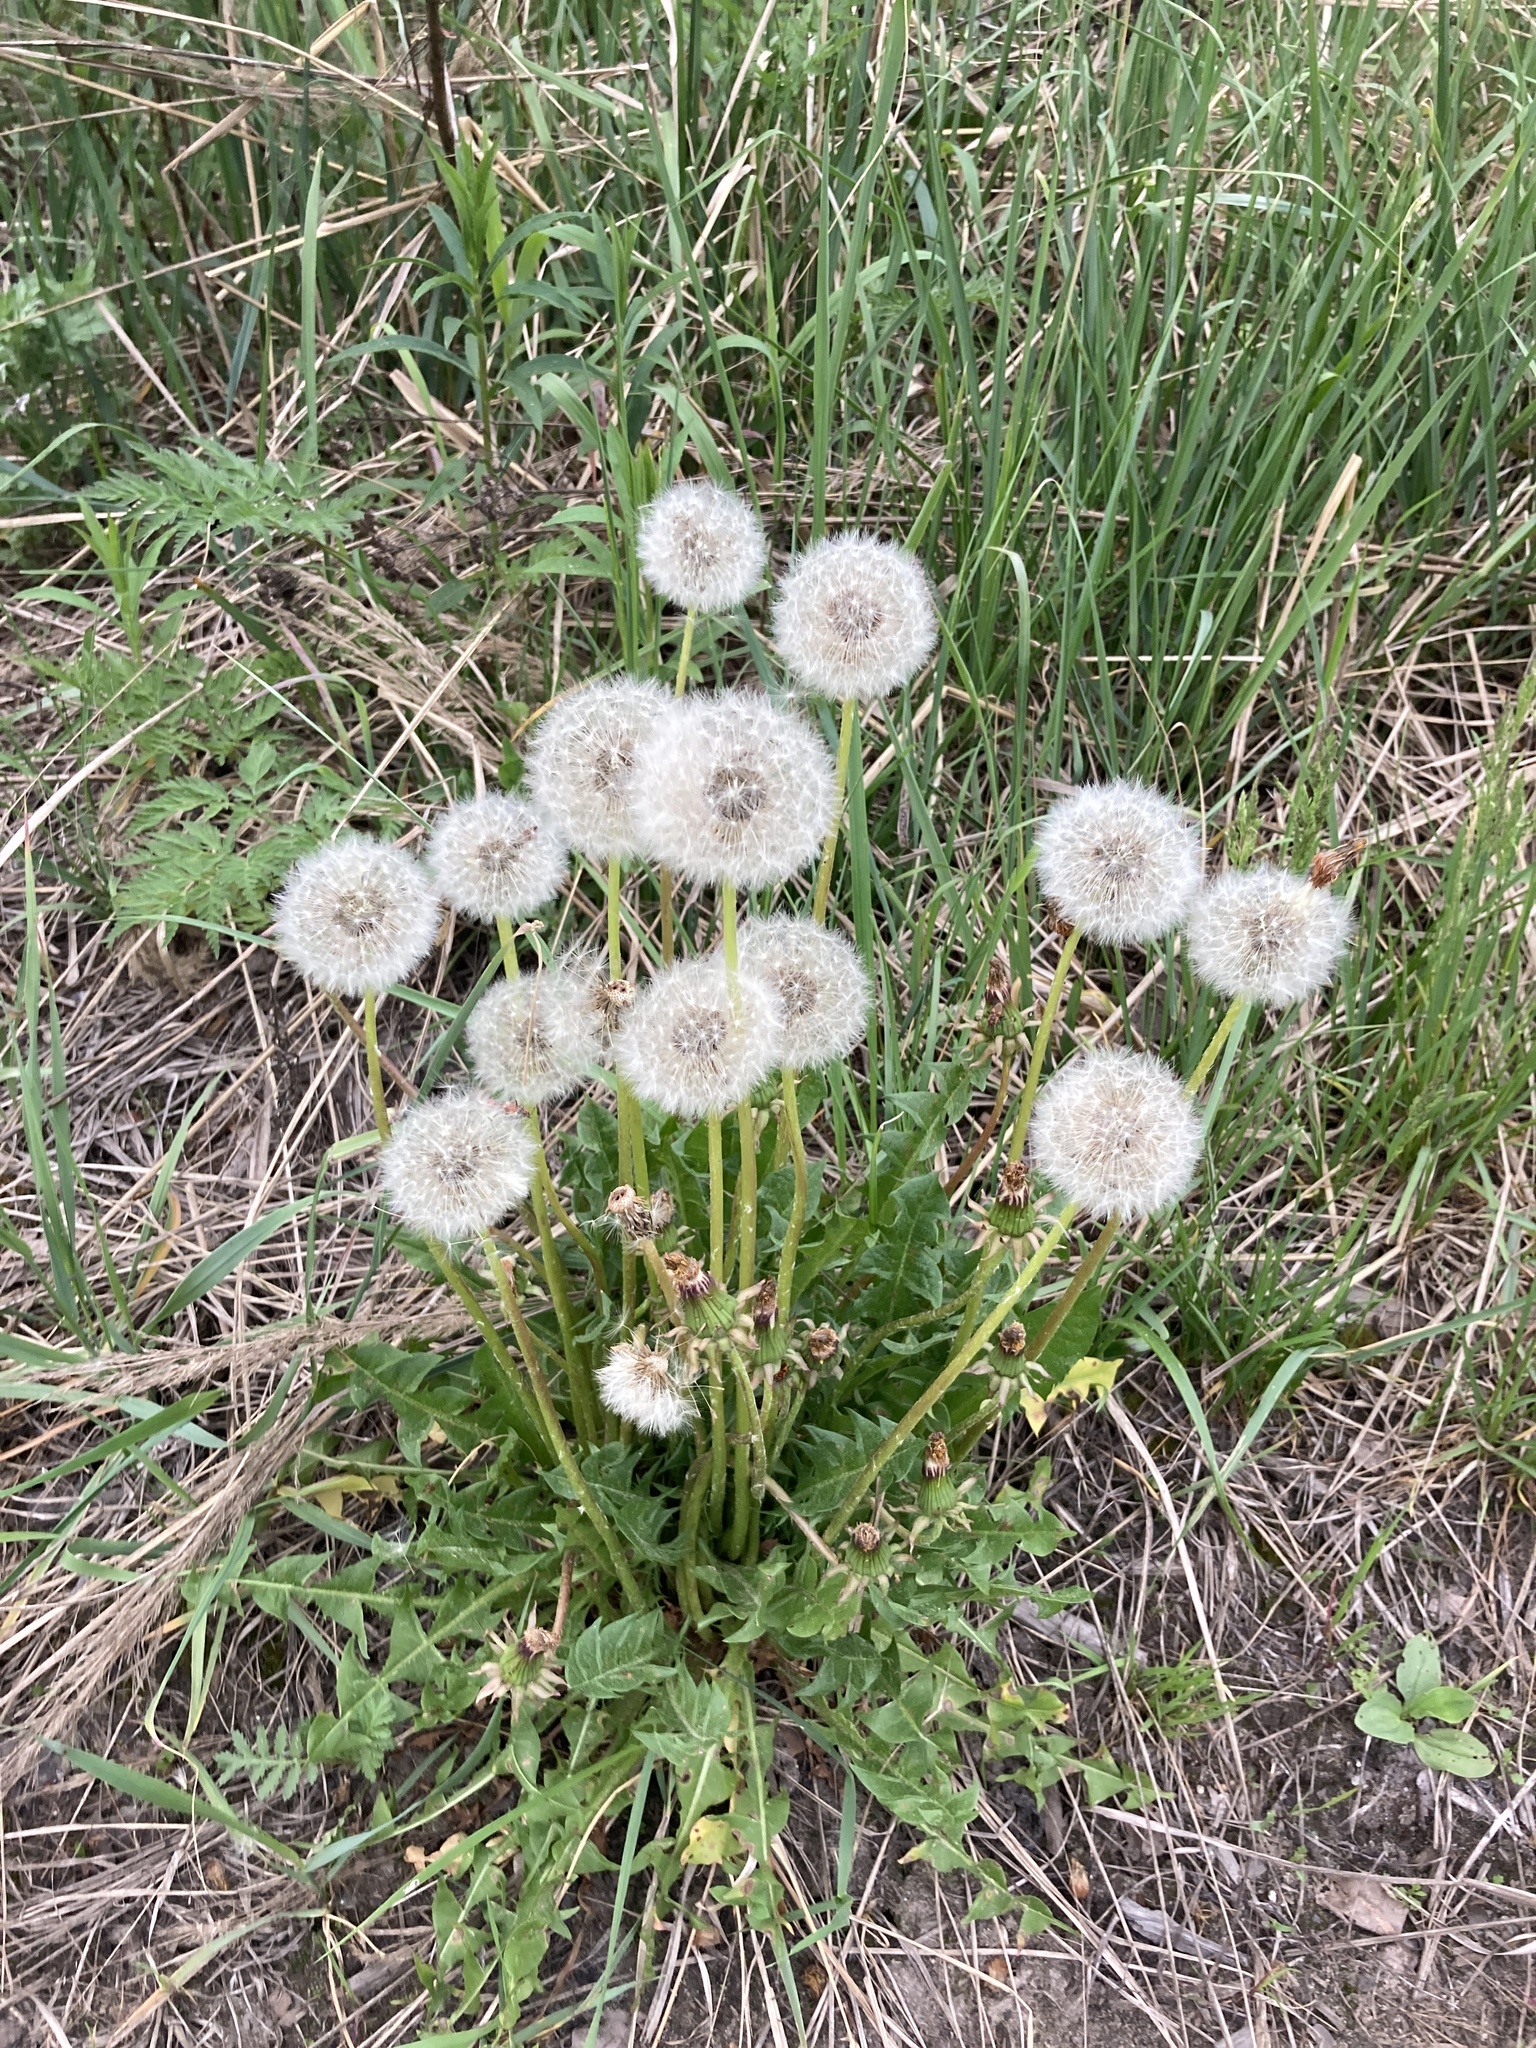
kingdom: Plantae
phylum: Tracheophyta
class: Magnoliopsida
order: Asterales
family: Asteraceae
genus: Taraxacum
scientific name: Taraxacum officinale
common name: Common dandelion
